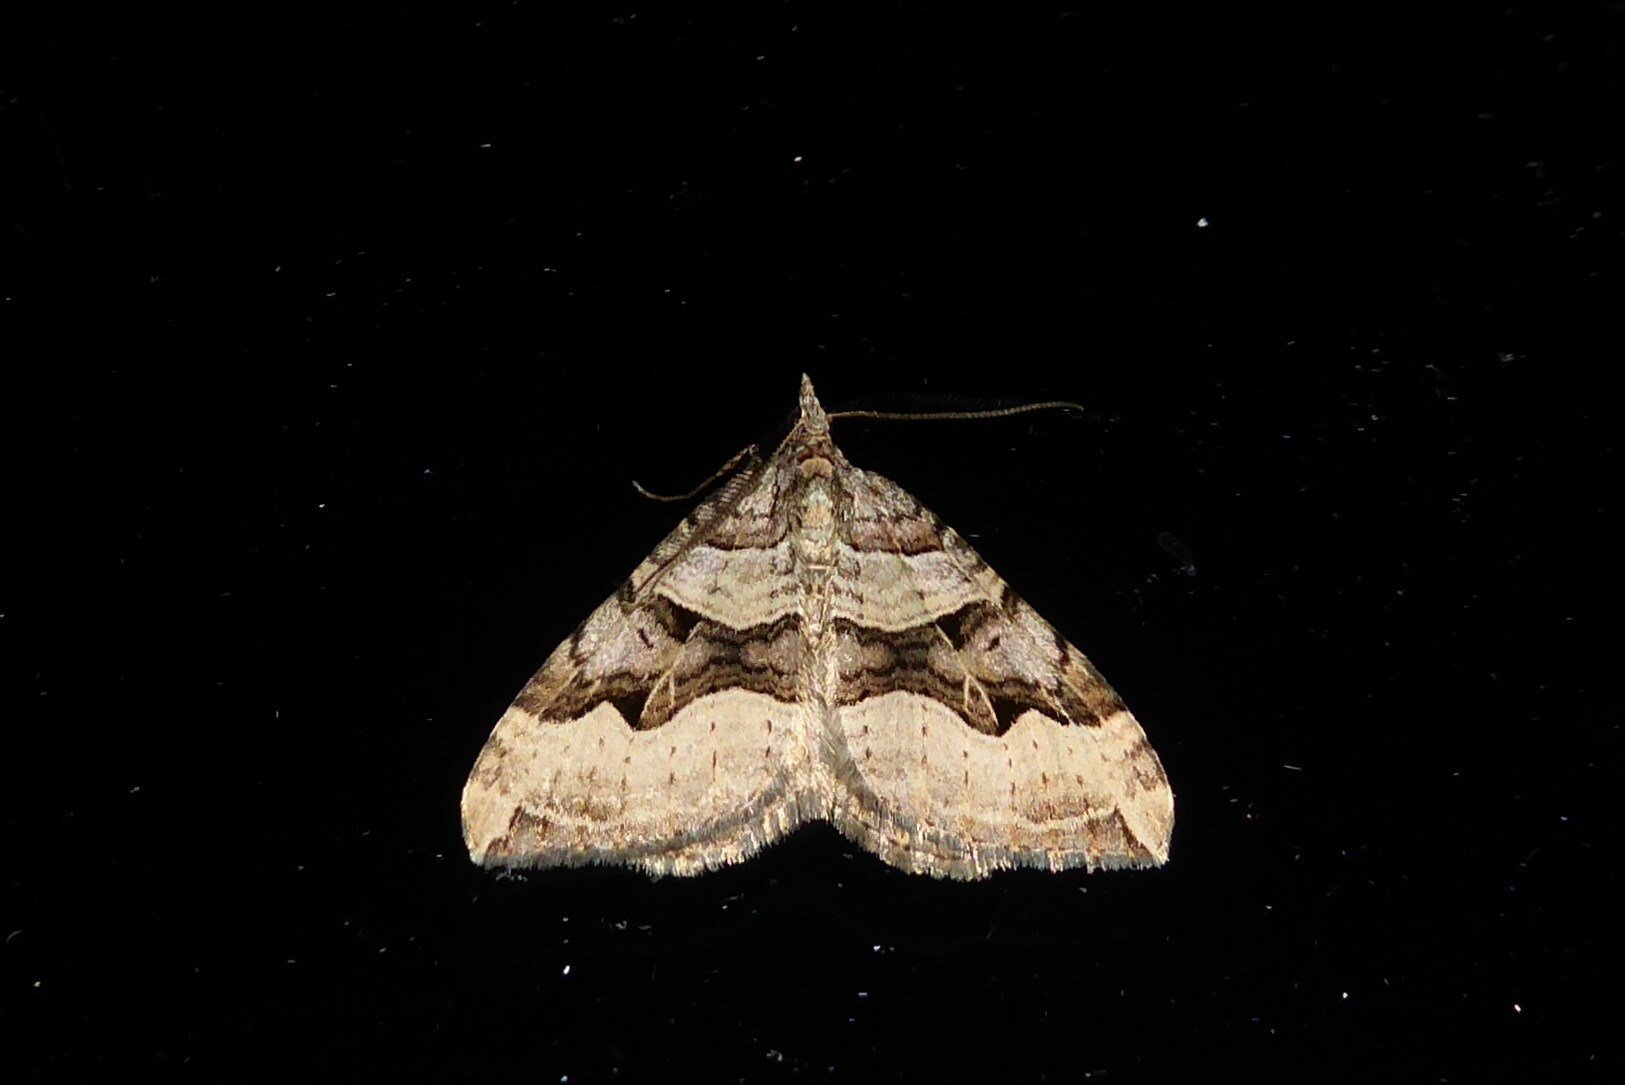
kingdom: Animalia
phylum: Arthropoda
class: Insecta
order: Lepidoptera
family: Geometridae
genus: Xanthorhoe
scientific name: Xanthorhoe semifissata
